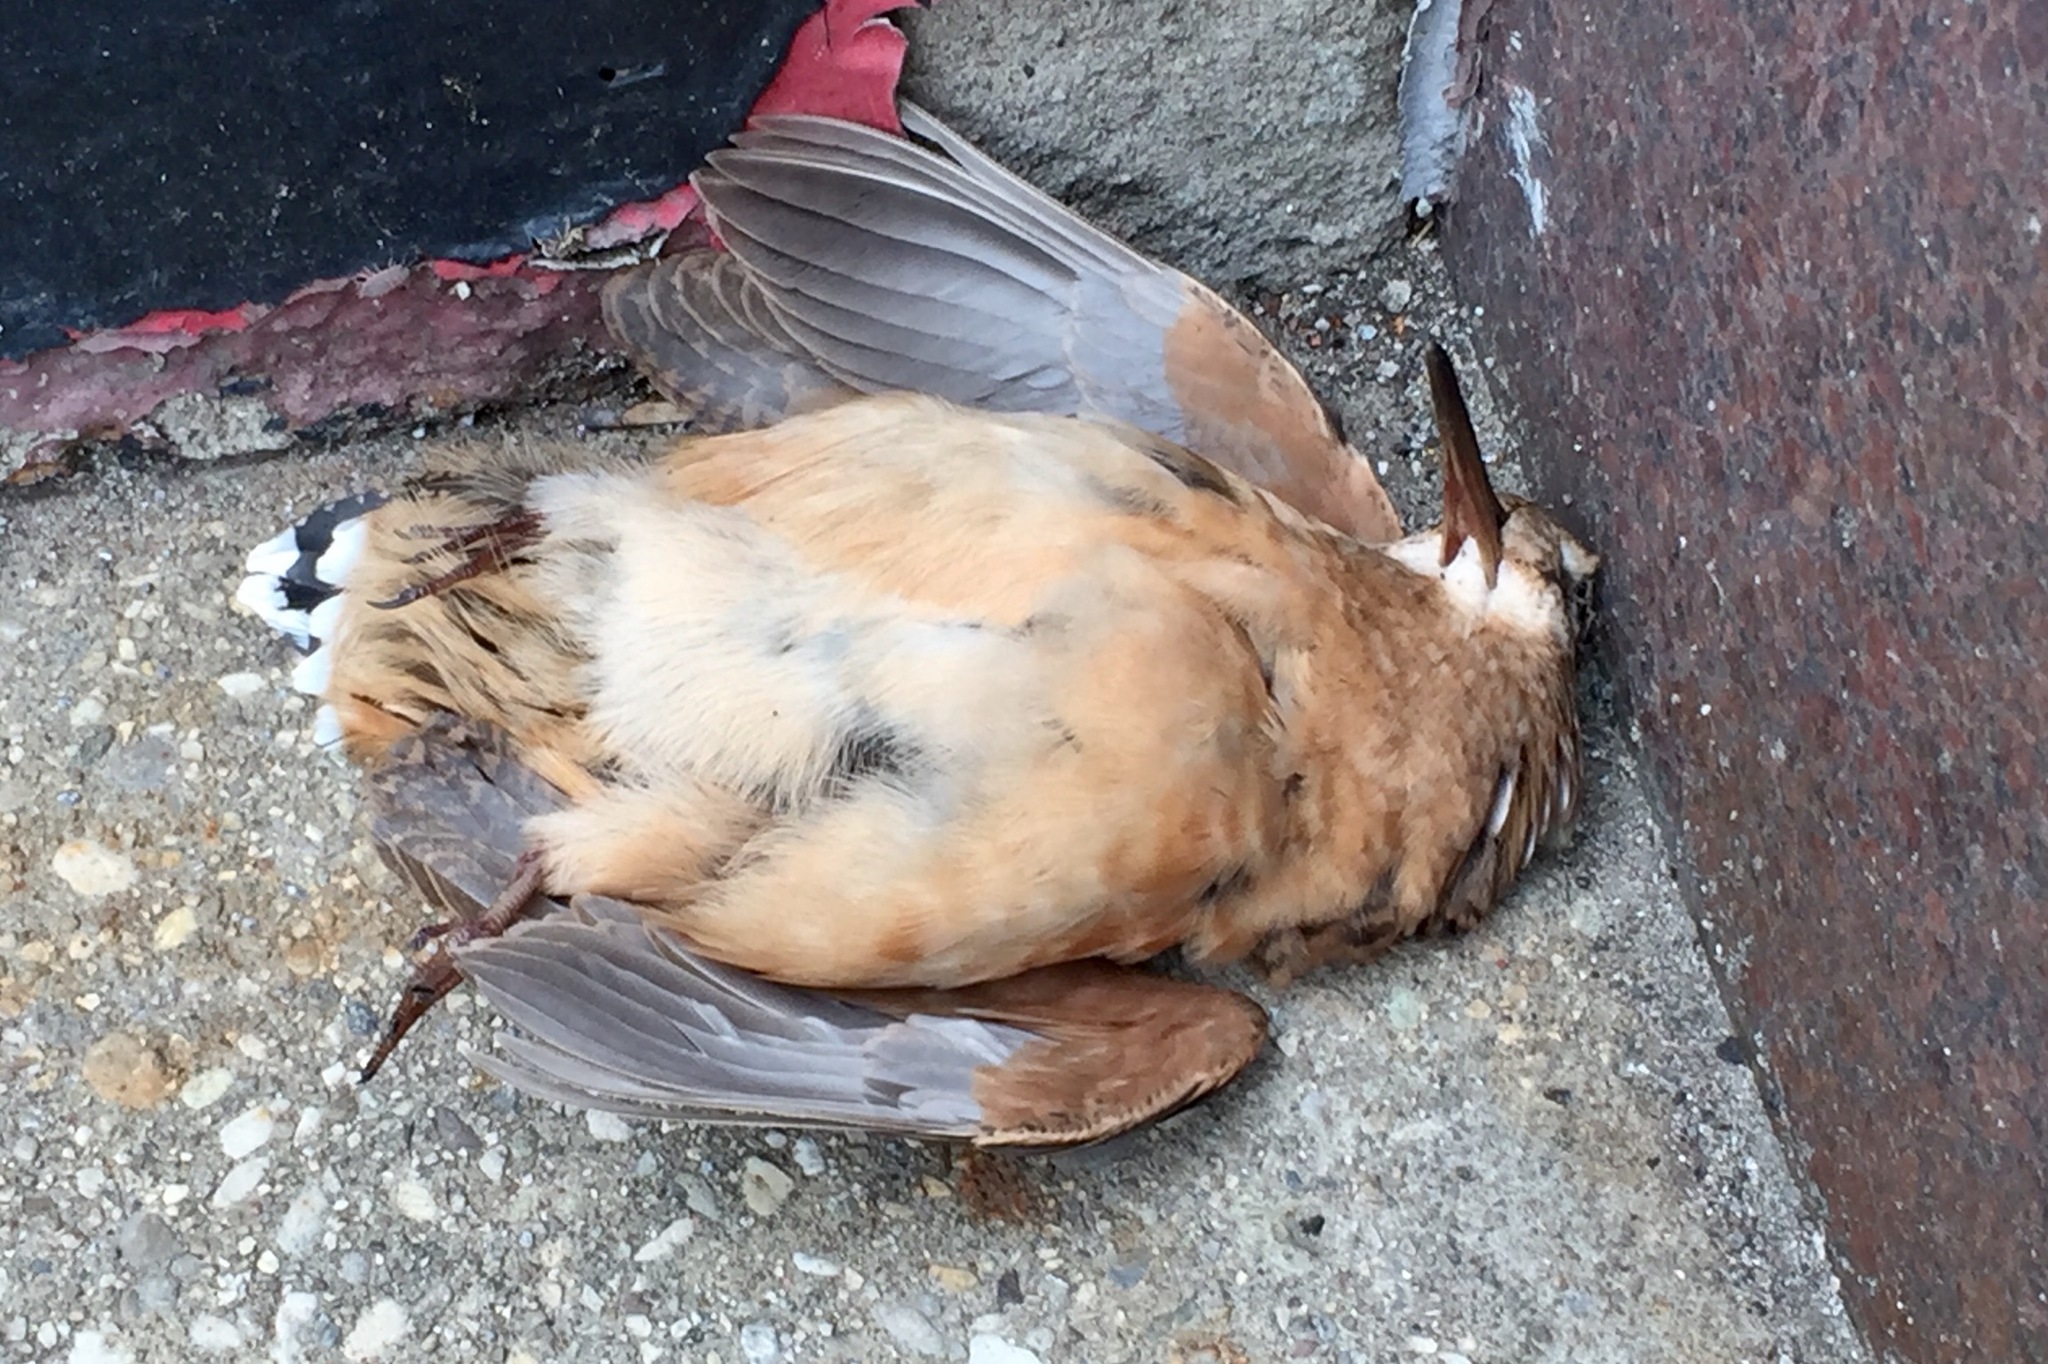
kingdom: Animalia
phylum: Chordata
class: Aves
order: Charadriiformes
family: Scolopacidae
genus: Scolopax
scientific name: Scolopax minor
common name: American woodcock
